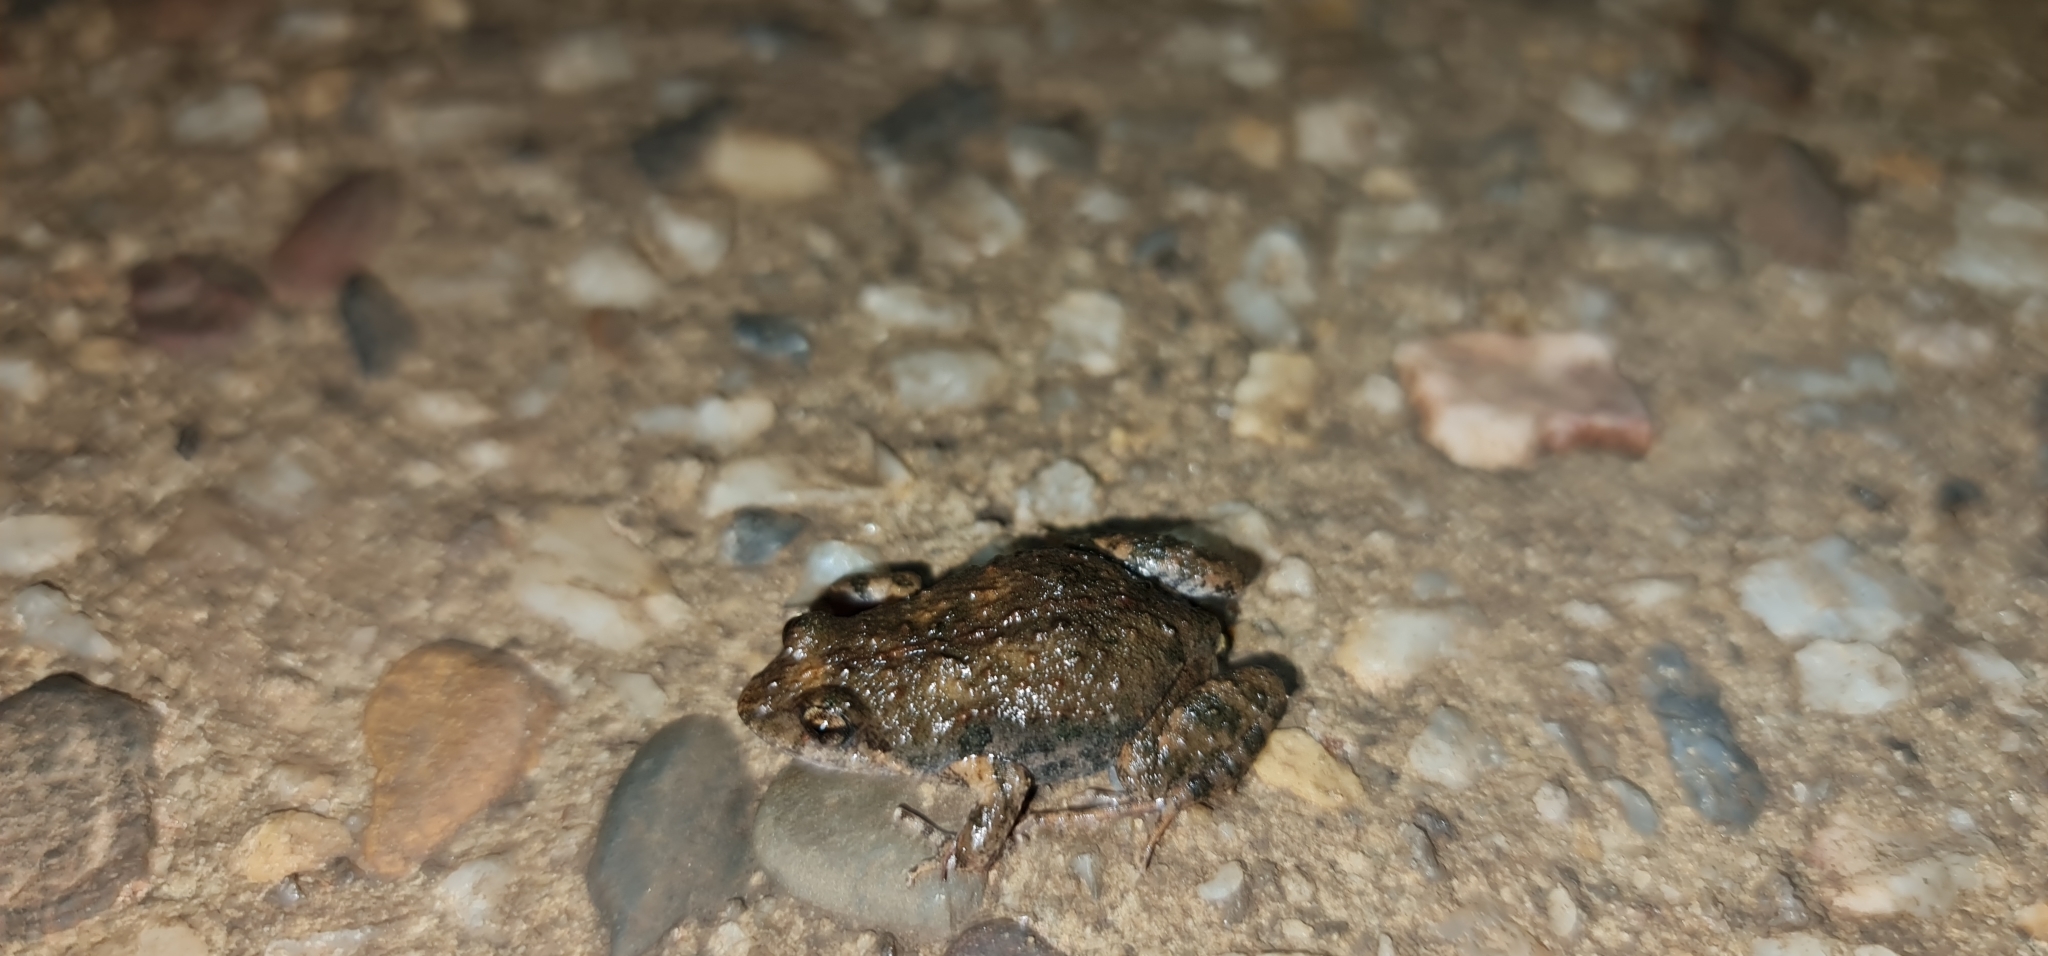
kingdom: Animalia
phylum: Chordata
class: Amphibia
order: Anura
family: Myobatrachidae
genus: Crinia
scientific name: Crinia signifera
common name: Brown froglet
